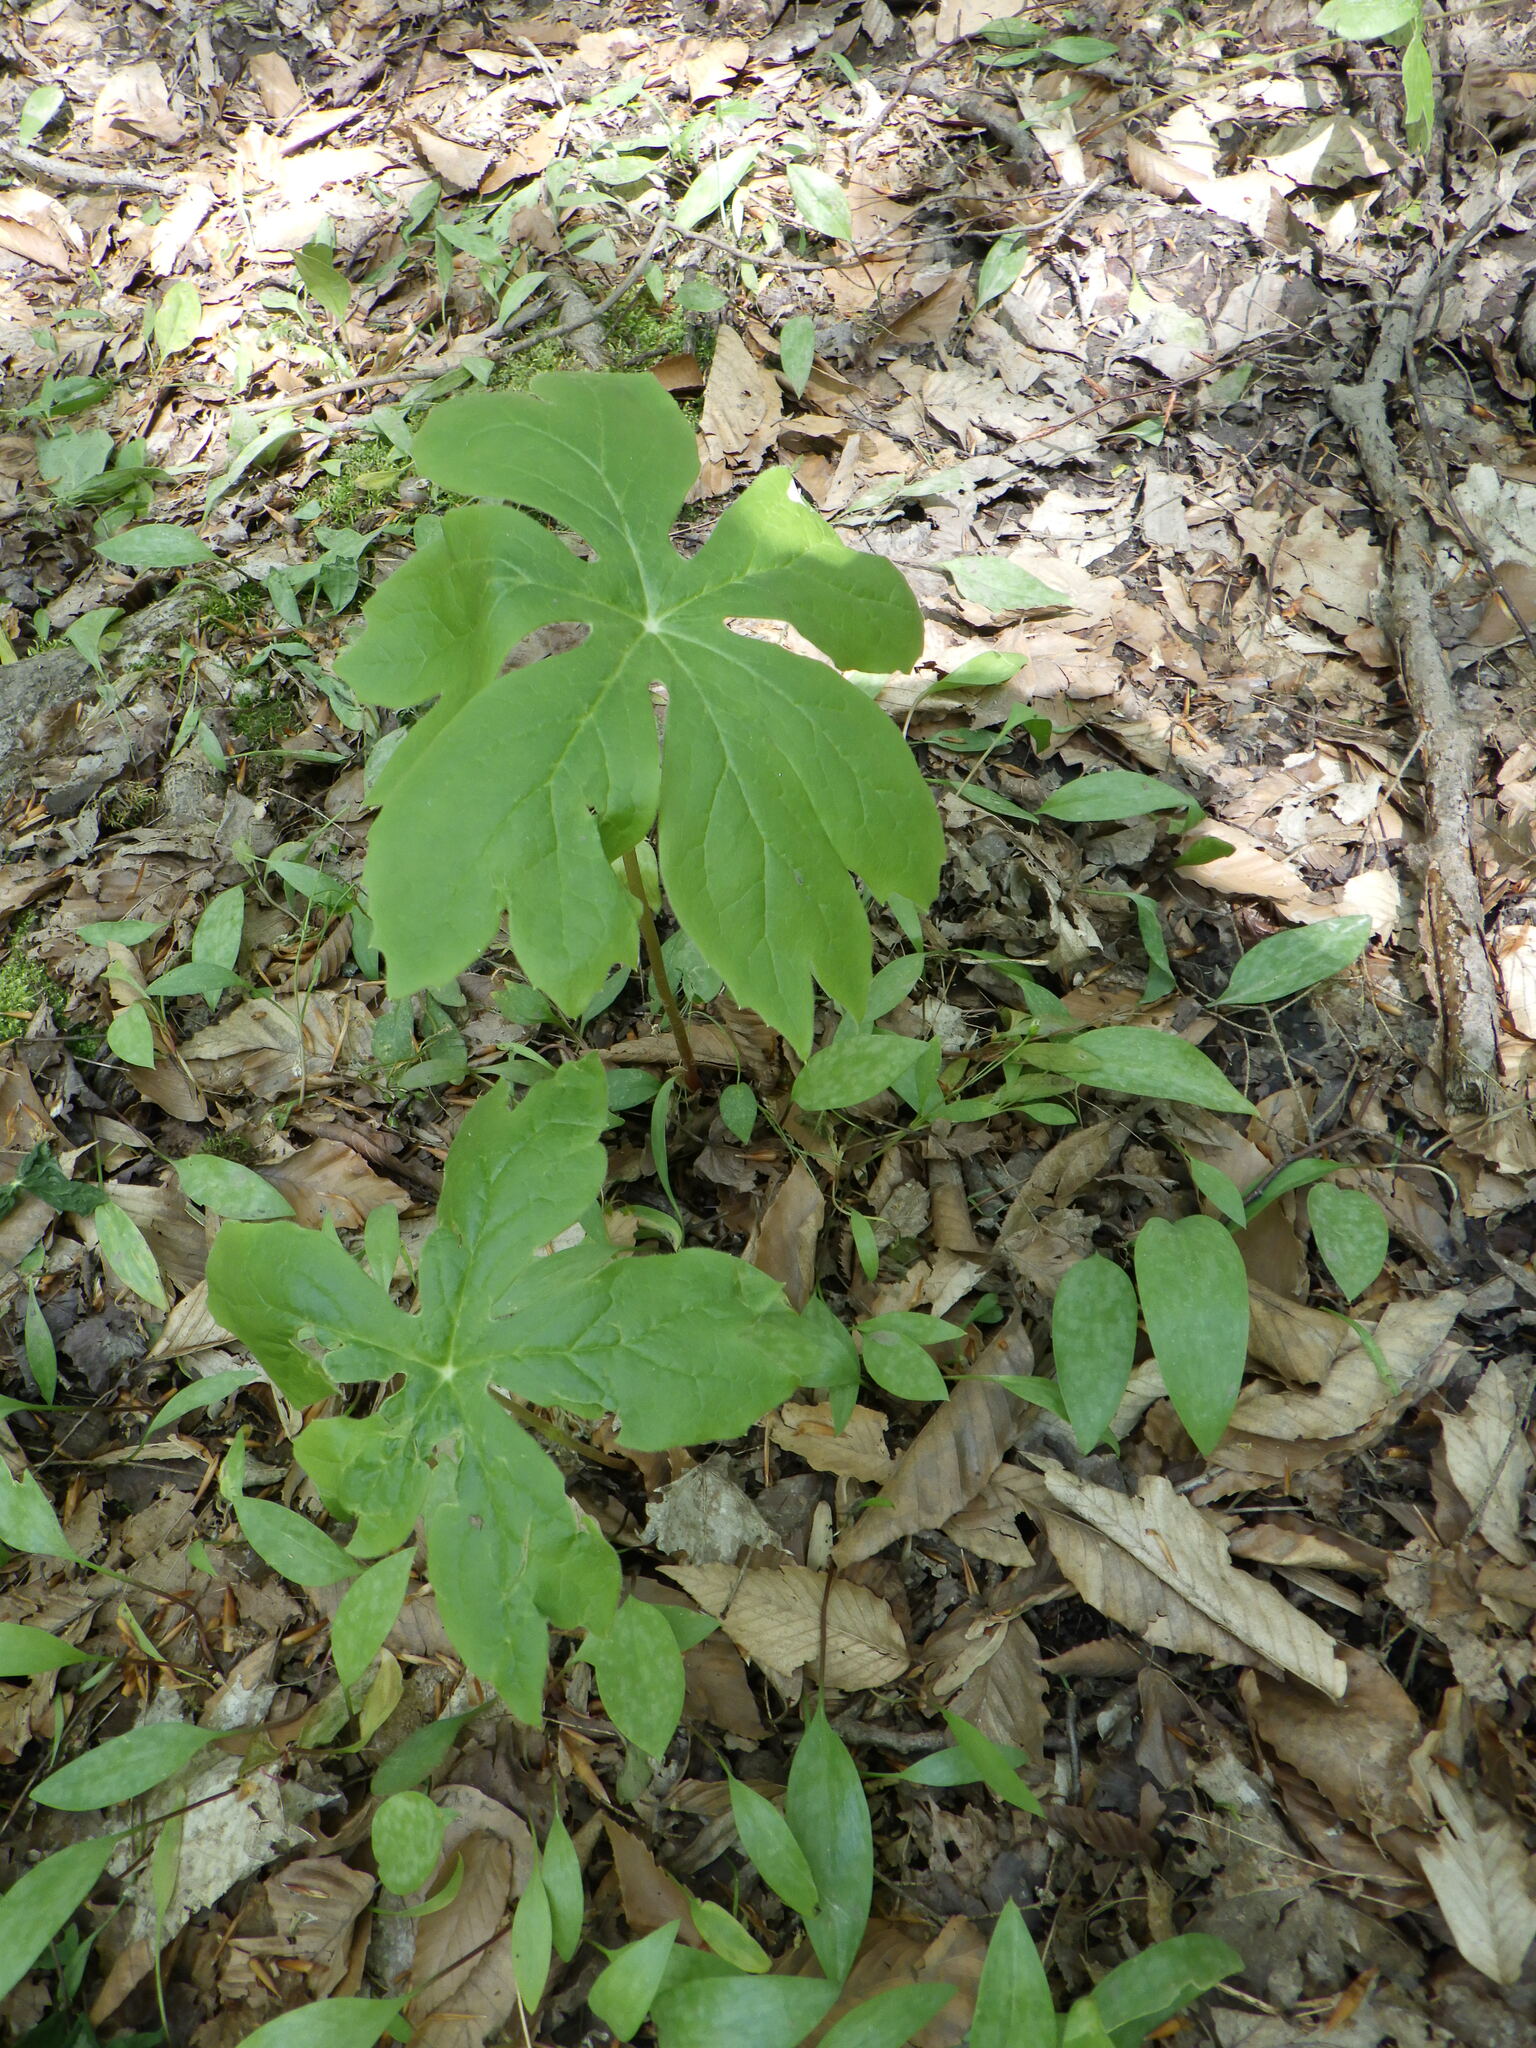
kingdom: Plantae
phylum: Tracheophyta
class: Magnoliopsida
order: Ranunculales
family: Berberidaceae
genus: Podophyllum
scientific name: Podophyllum peltatum
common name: Wild mandrake
